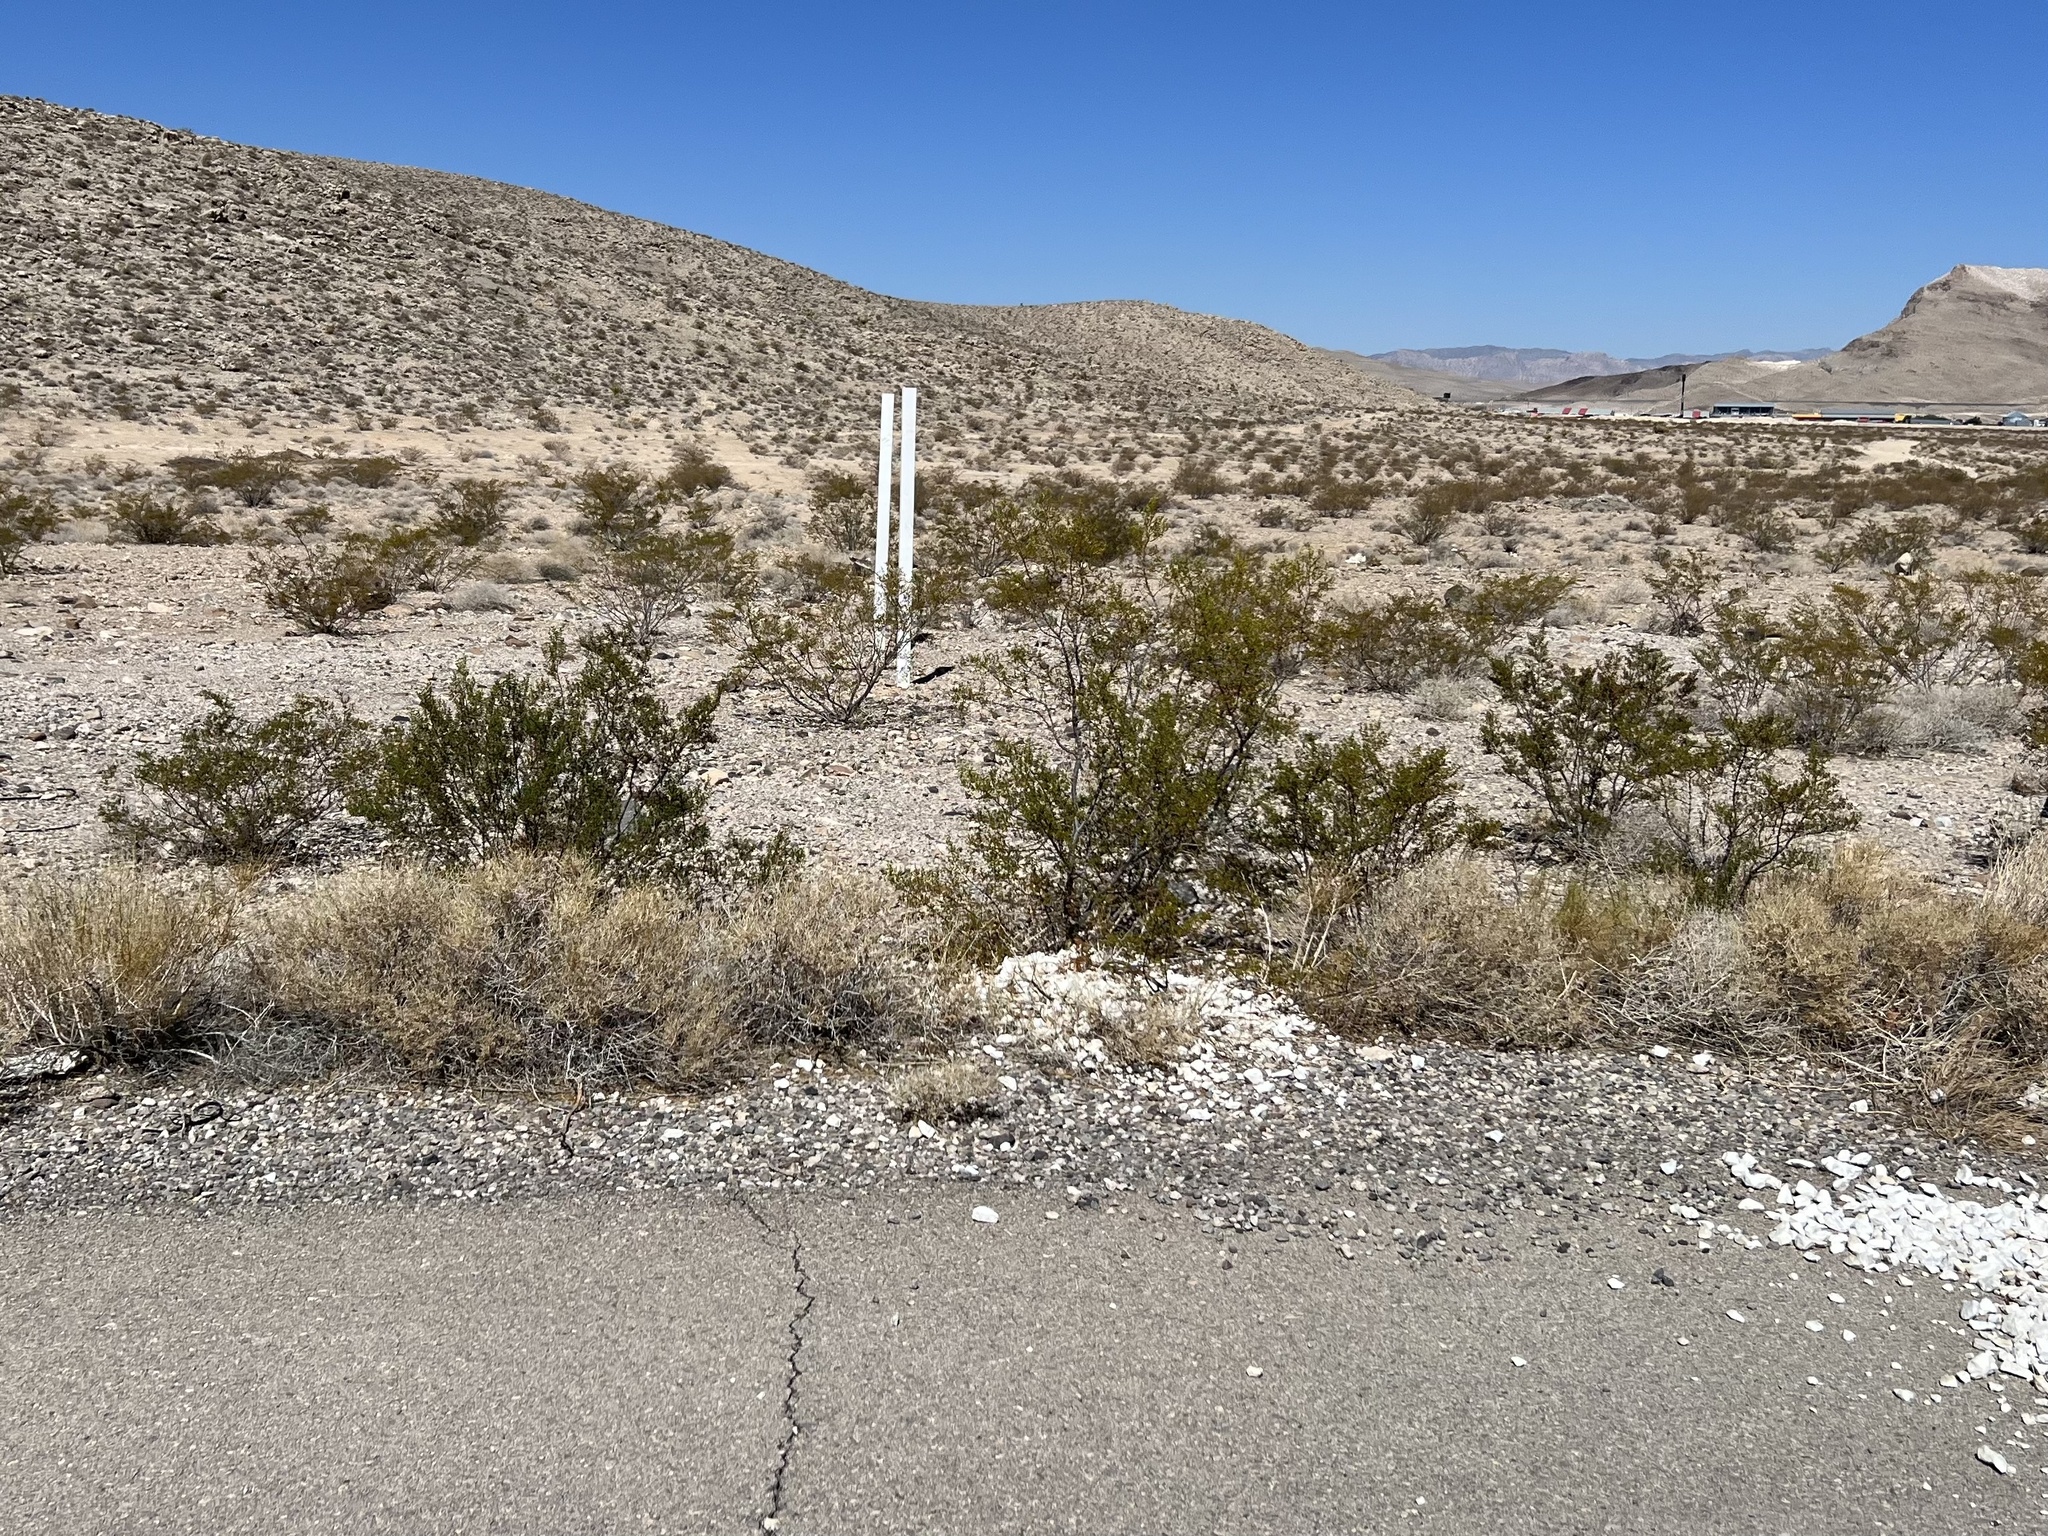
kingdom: Plantae
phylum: Tracheophyta
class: Magnoliopsida
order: Zygophyllales
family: Zygophyllaceae
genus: Larrea
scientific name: Larrea tridentata
